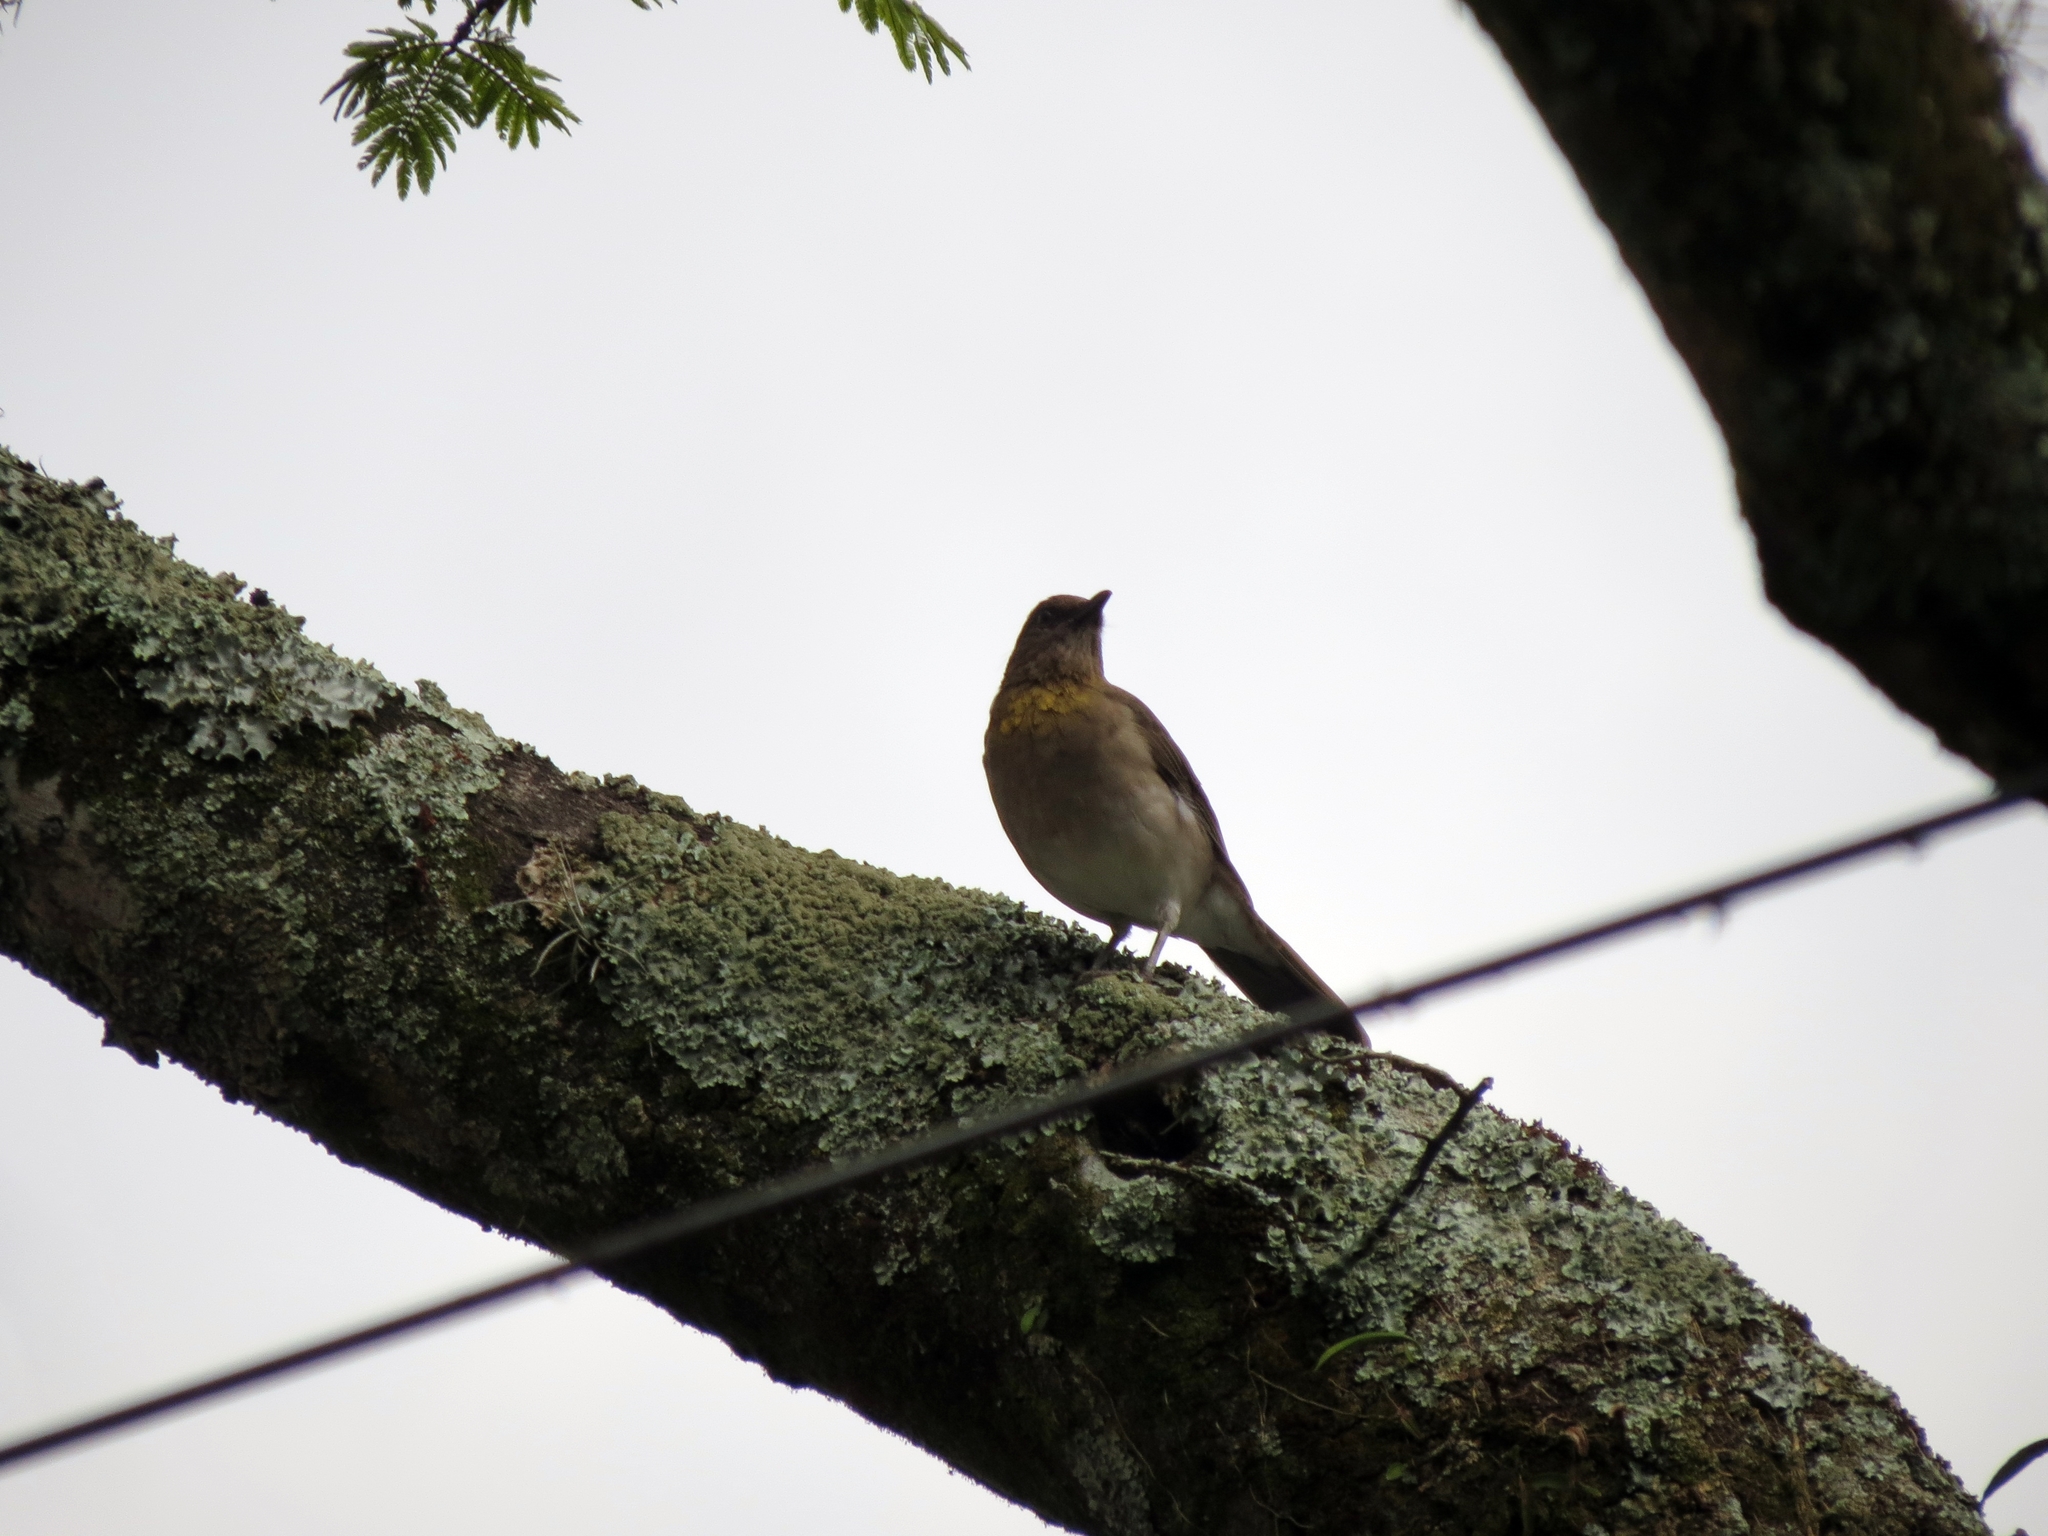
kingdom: Animalia
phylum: Chordata
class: Aves
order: Passeriformes
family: Turdidae
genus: Turdus
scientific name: Turdus ignobilis
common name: Black-billed thrush
